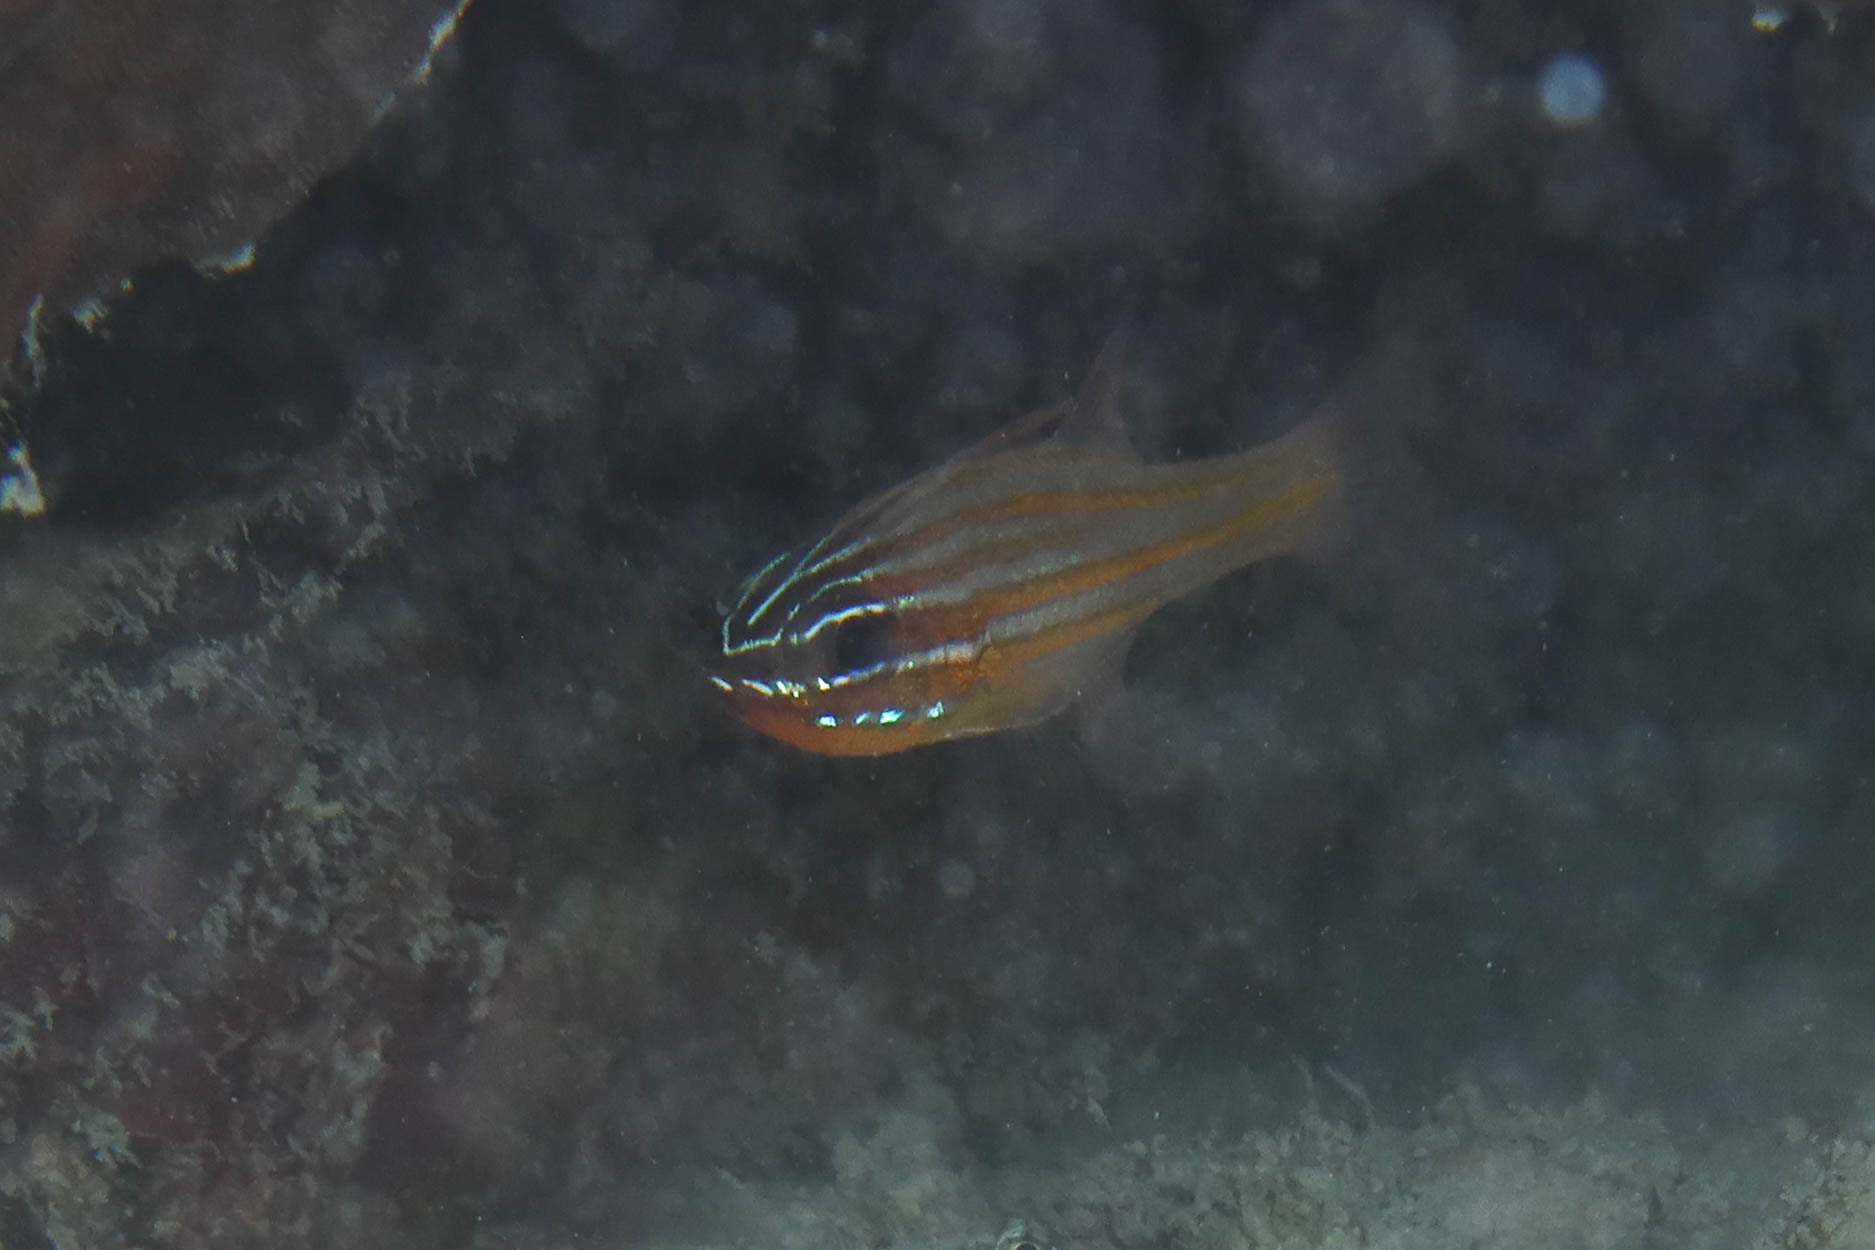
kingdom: Animalia
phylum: Chordata
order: Perciformes
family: Apogonidae
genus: Ostorhinchus
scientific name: Ostorhinchus cyanosoma
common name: Yellow-striped cardinalfish
